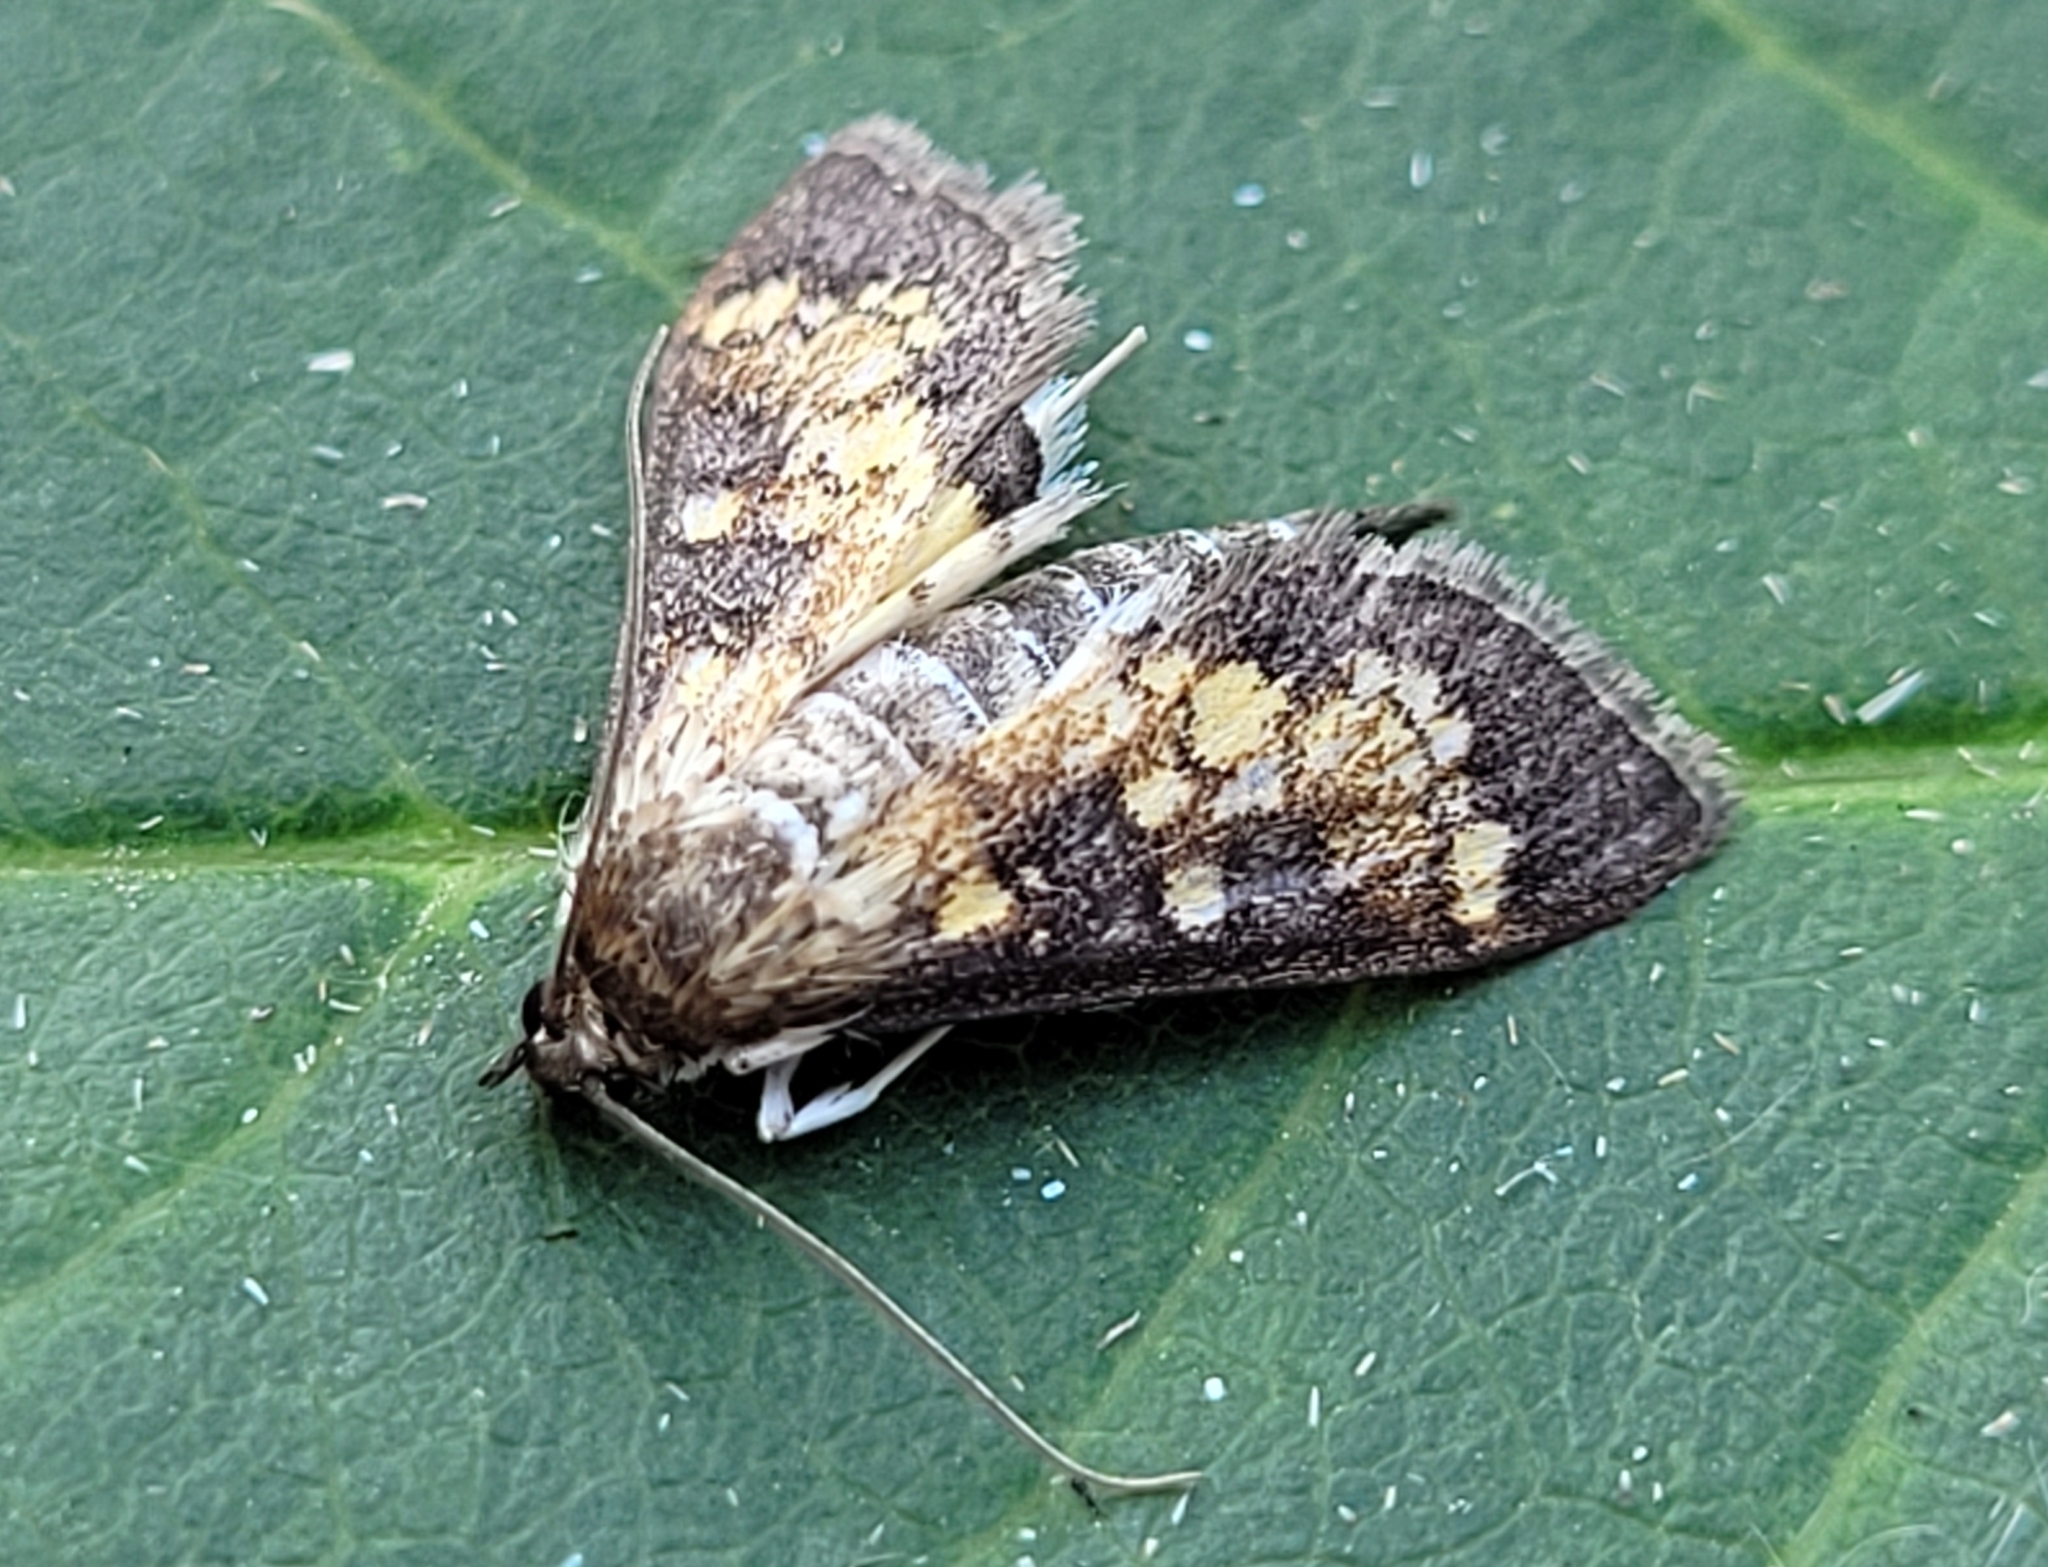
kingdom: Animalia
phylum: Arthropoda
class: Insecta
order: Lepidoptera
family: Crambidae
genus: Epipagis
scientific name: Epipagis adipaloides
